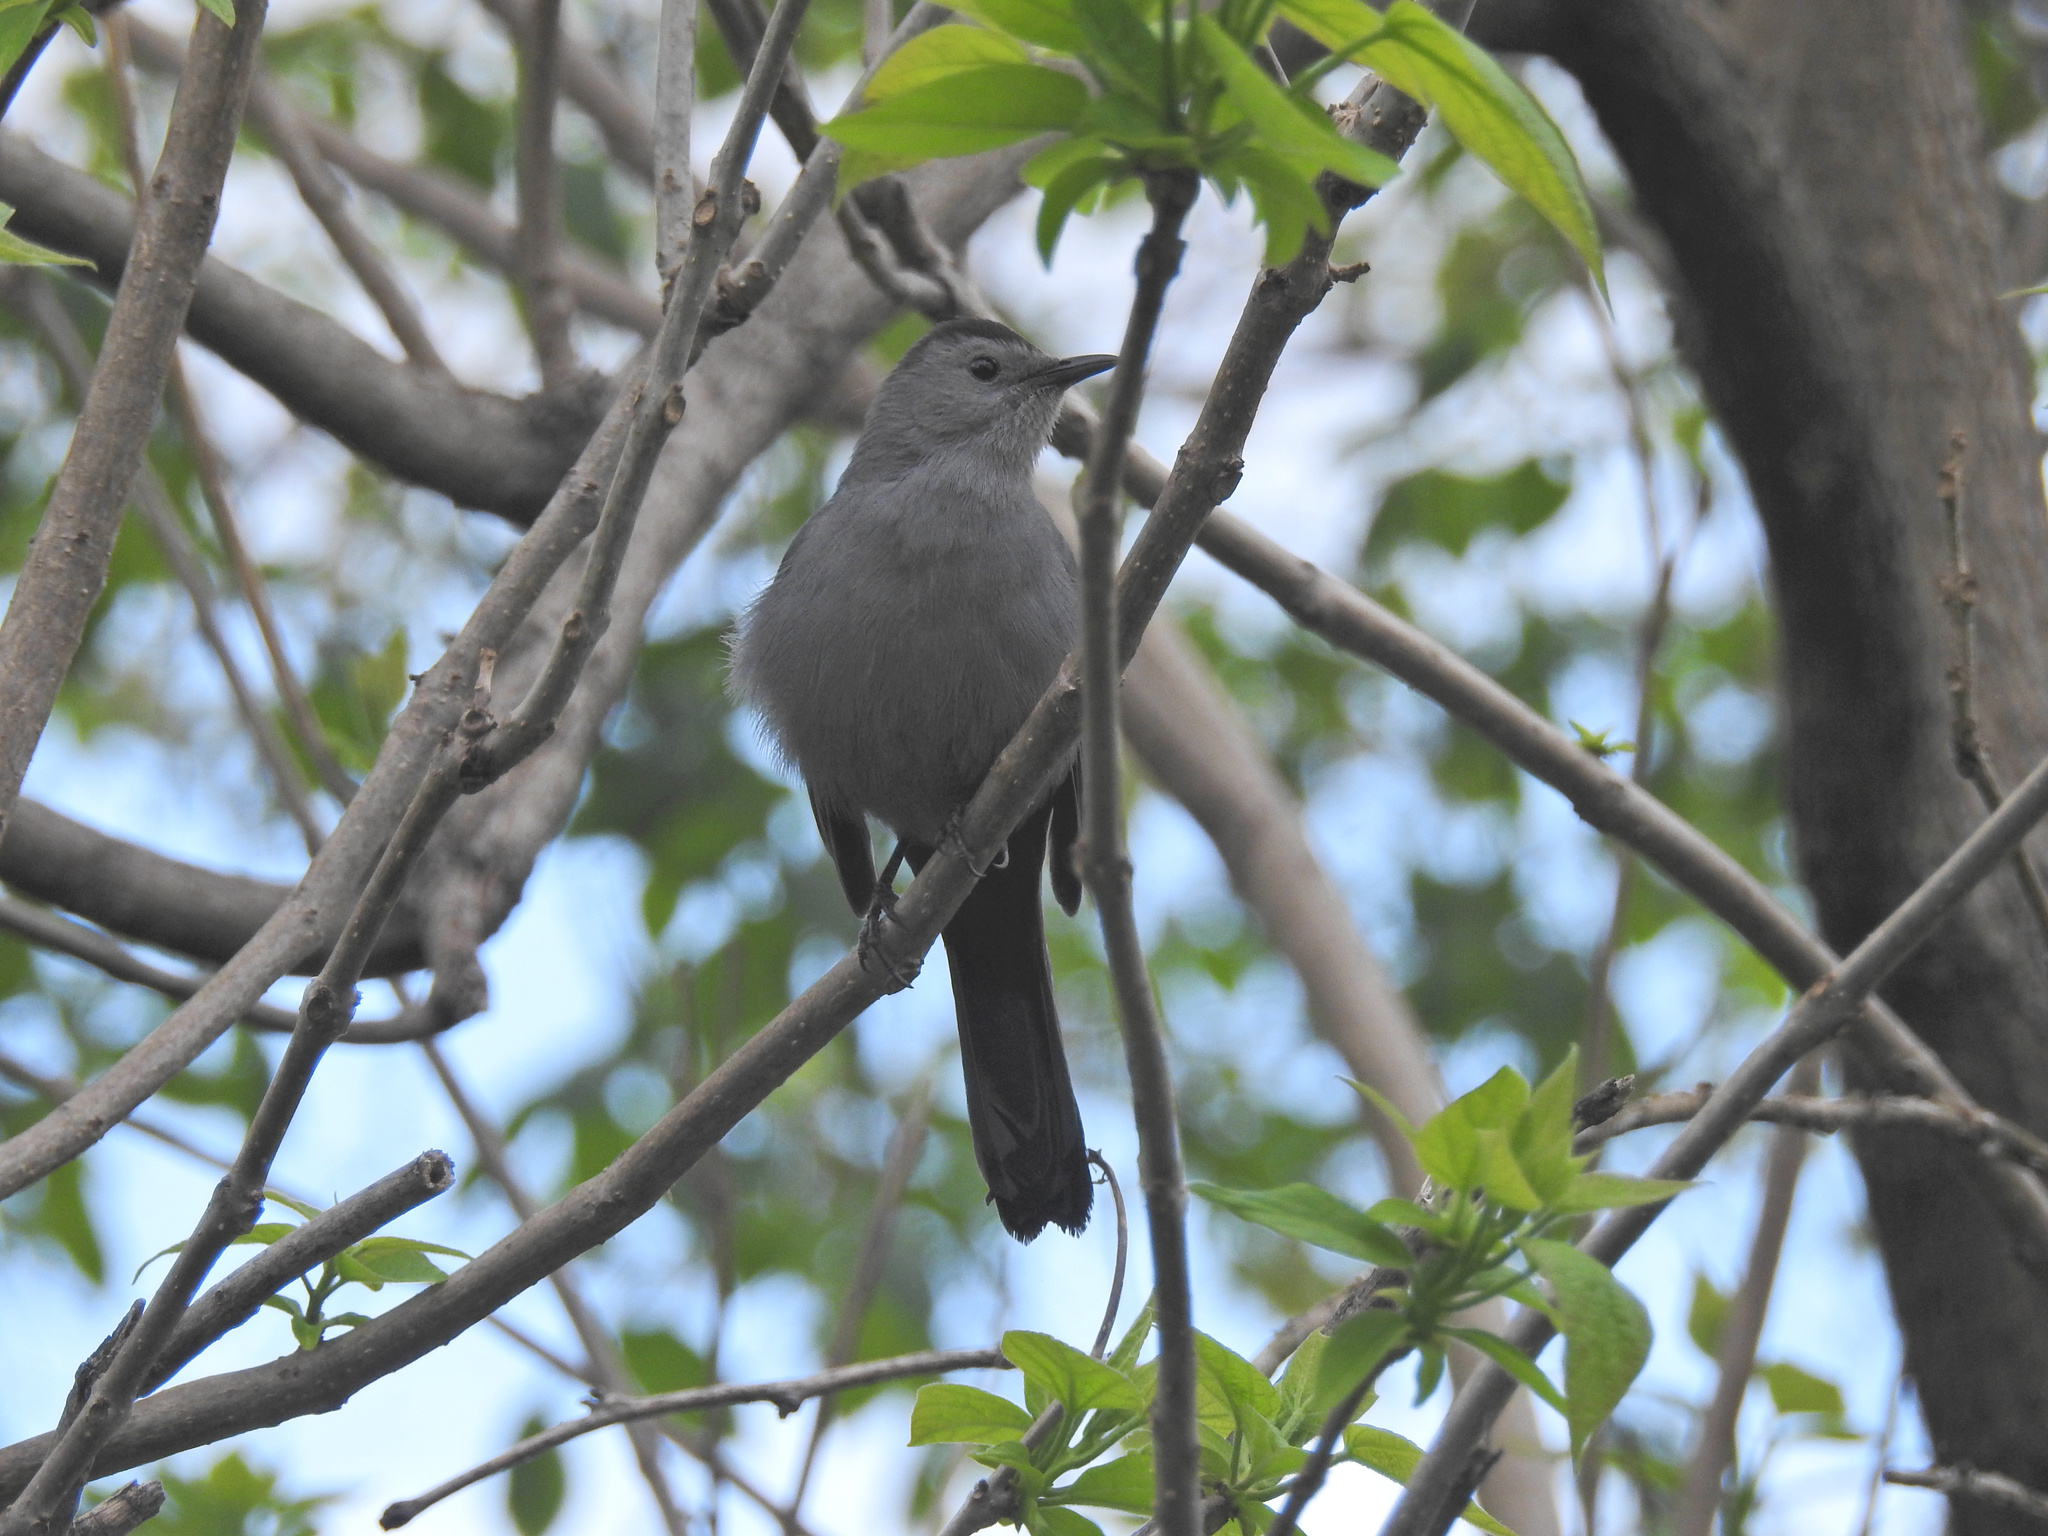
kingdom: Animalia
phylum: Chordata
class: Aves
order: Passeriformes
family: Mimidae
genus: Dumetella
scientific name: Dumetella carolinensis
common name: Gray catbird
